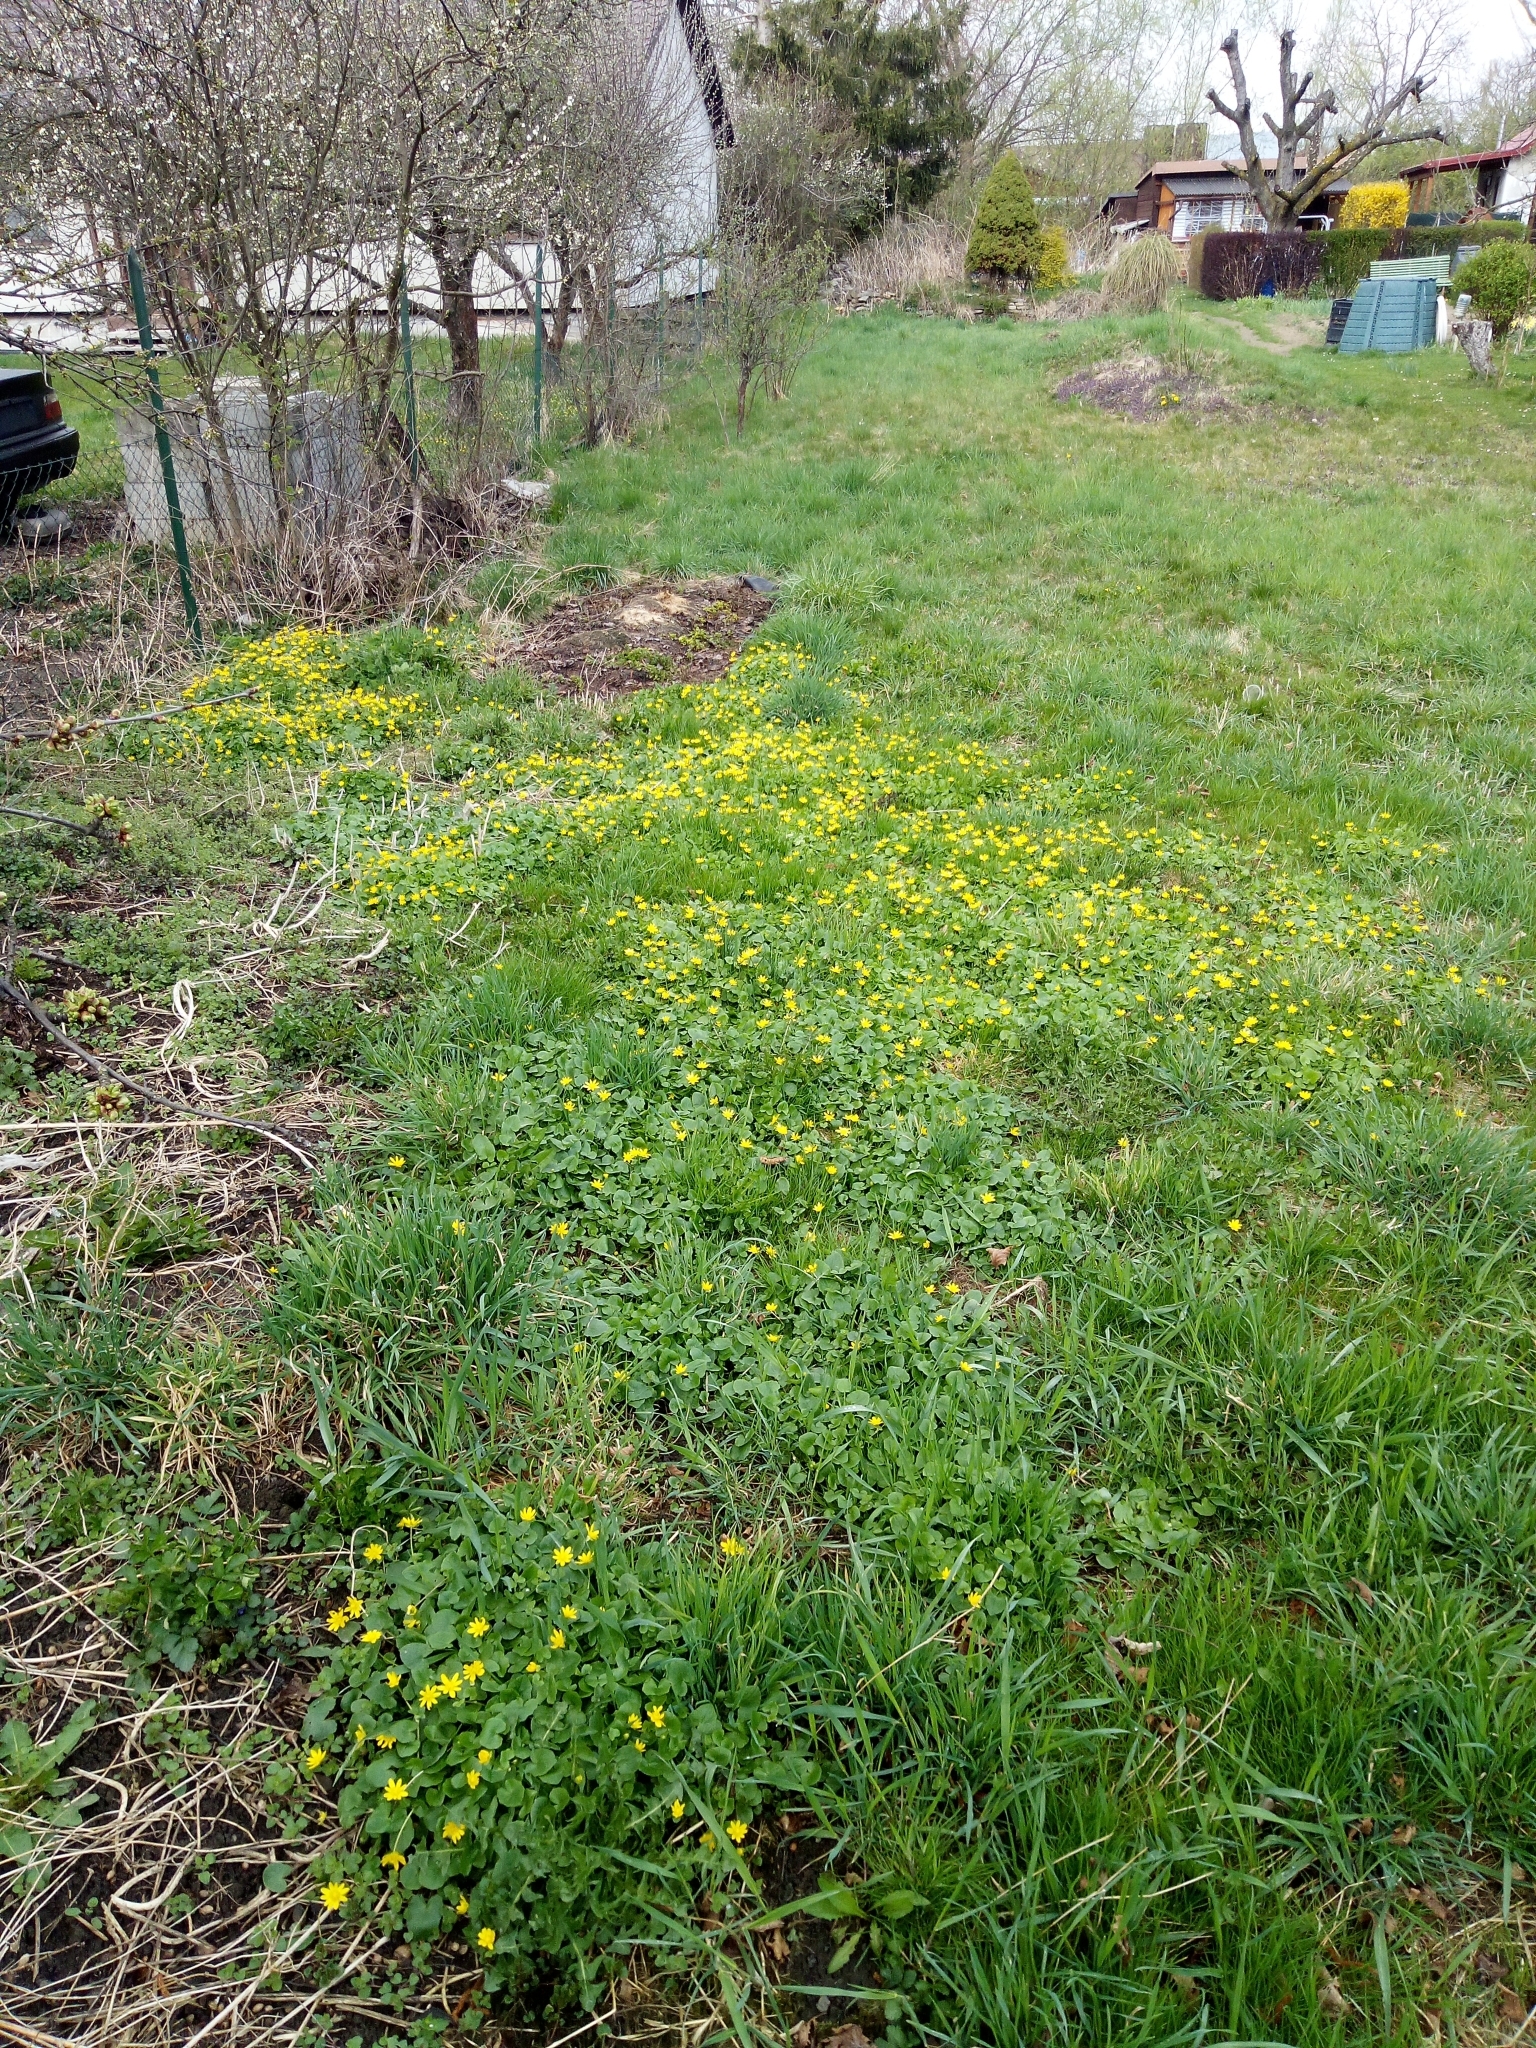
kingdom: Plantae
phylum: Tracheophyta
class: Magnoliopsida
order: Ranunculales
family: Ranunculaceae
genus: Ficaria
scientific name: Ficaria verna
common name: Lesser celandine
